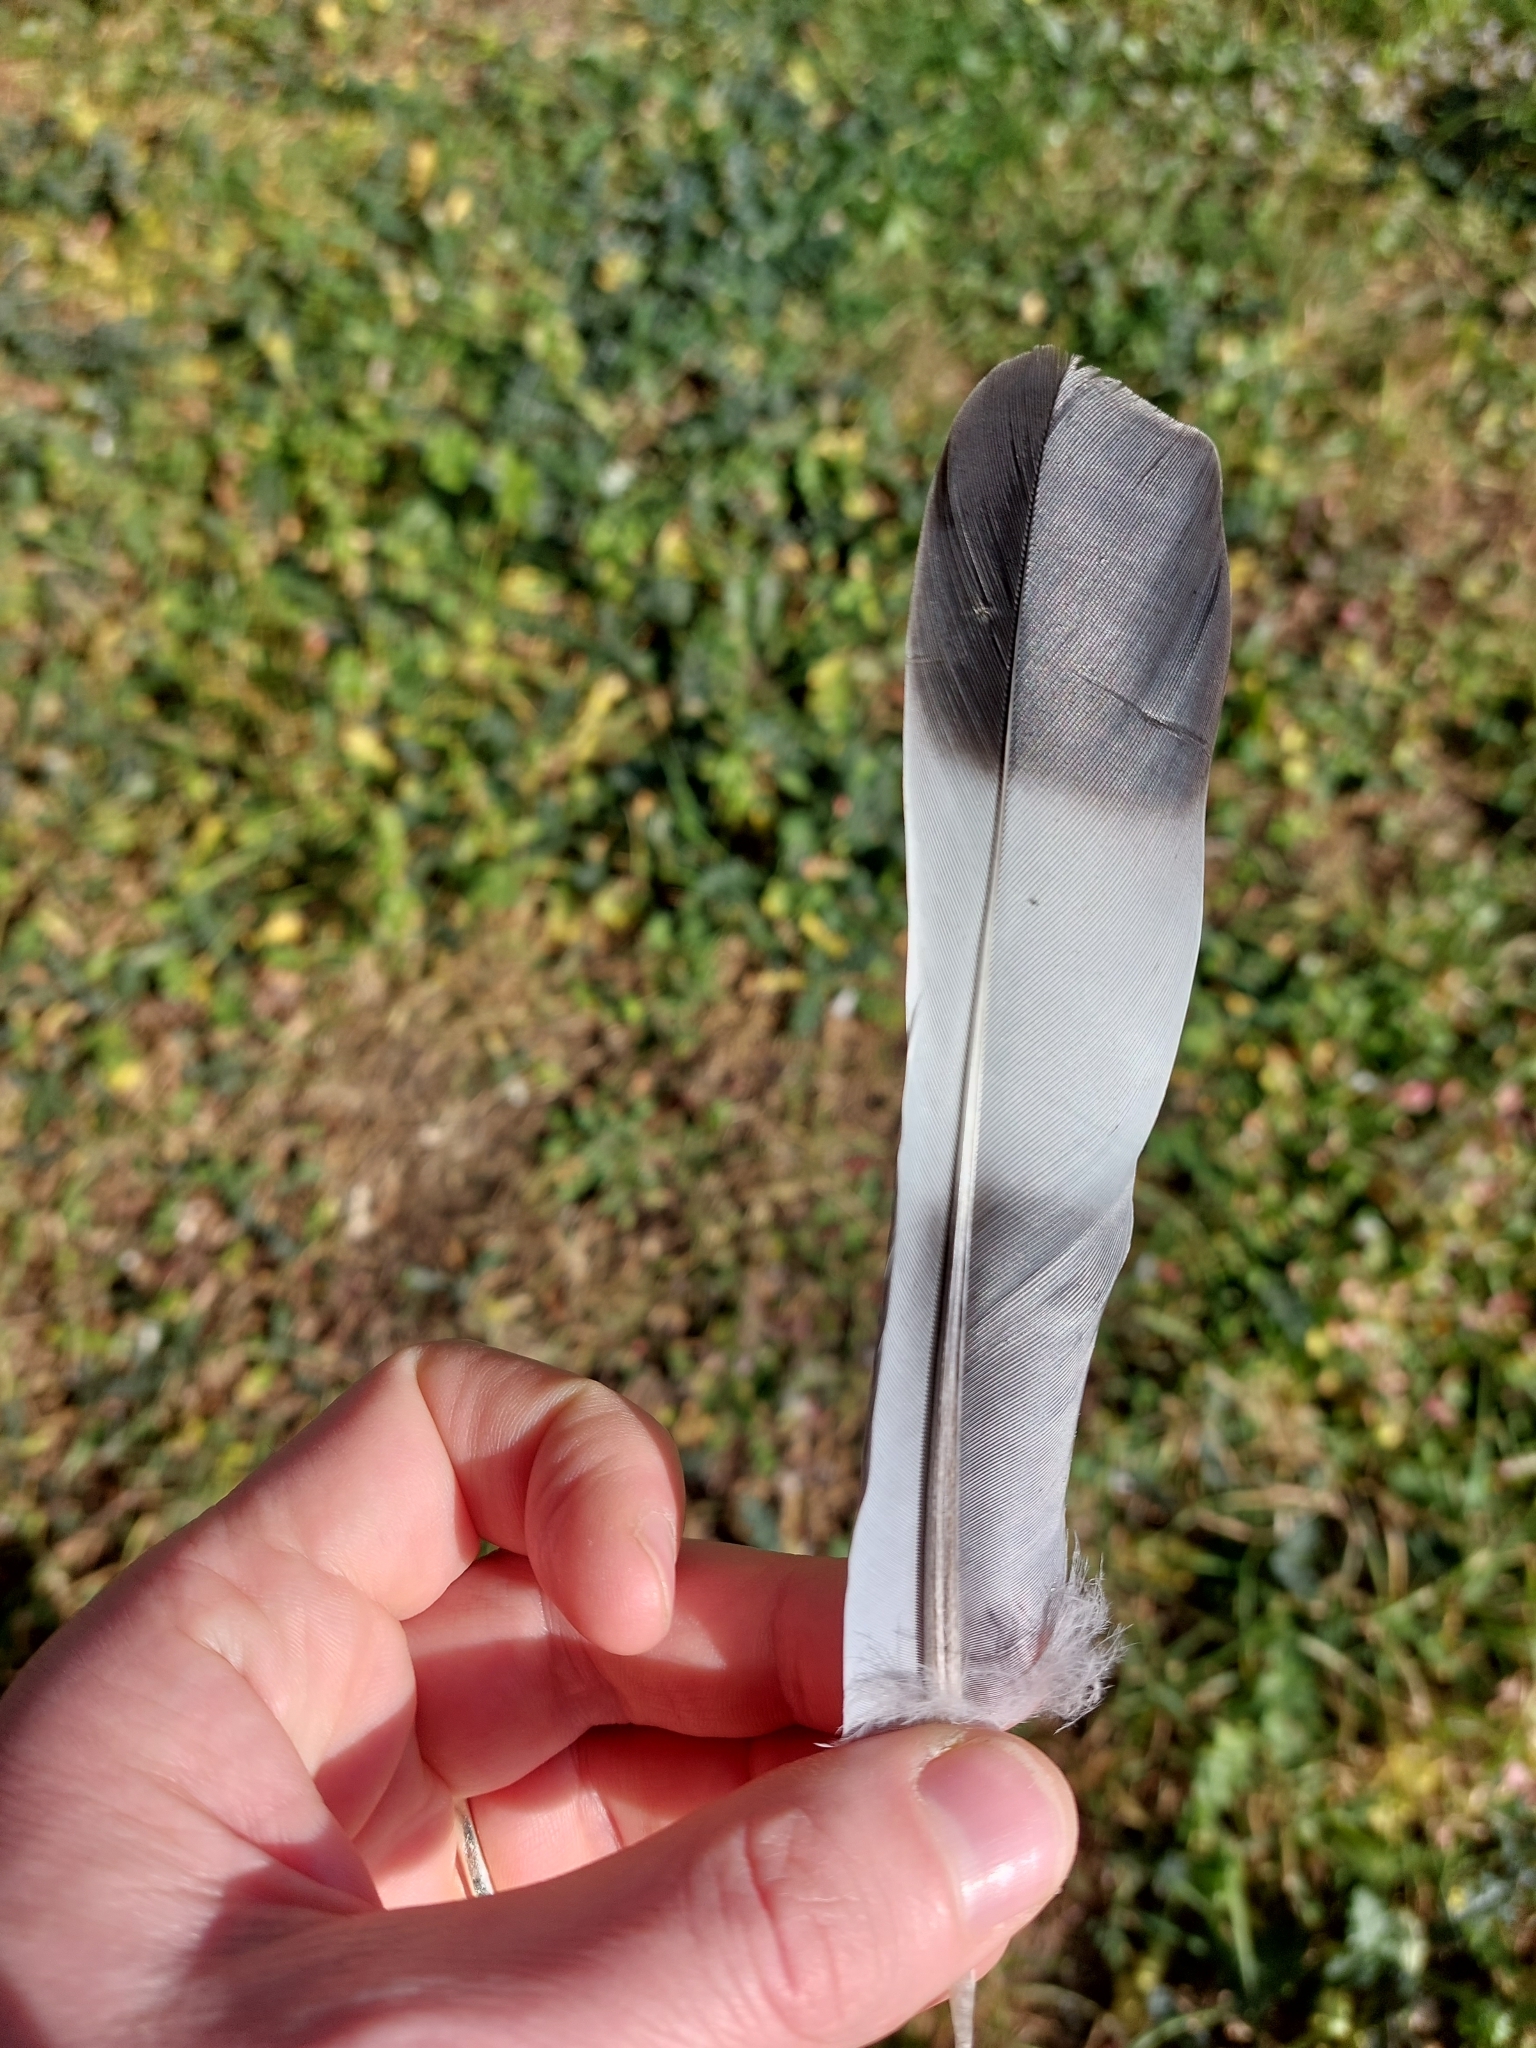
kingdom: Animalia
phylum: Chordata
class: Aves
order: Columbiformes
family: Columbidae
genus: Columba
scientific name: Columba palumbus
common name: Common wood pigeon
